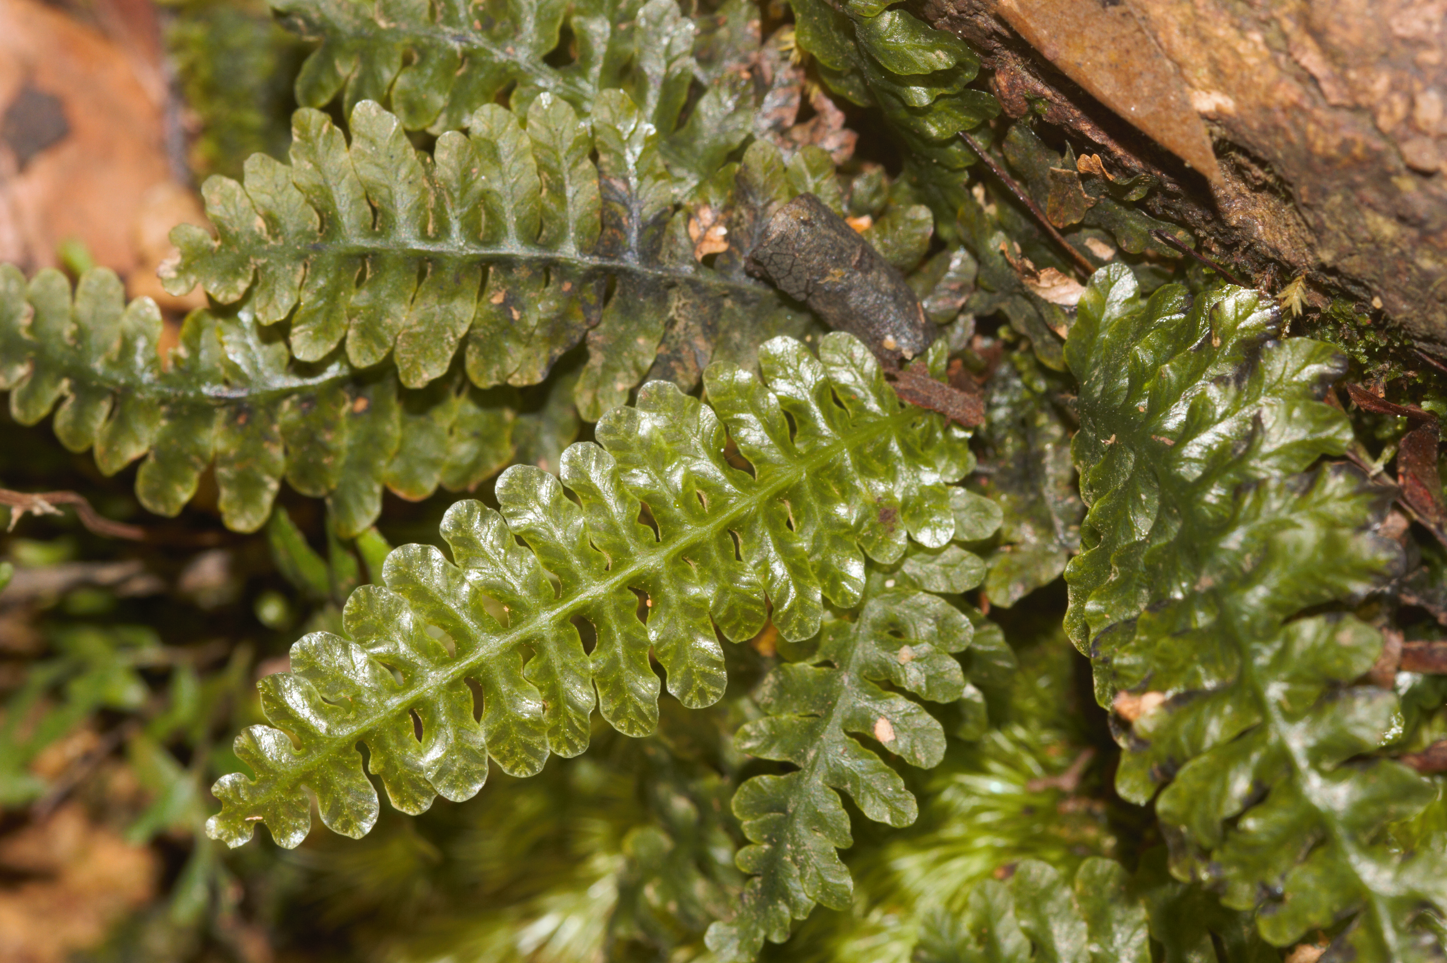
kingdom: Plantae
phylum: Tracheophyta
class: Polypodiopsida
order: Hymenophyllales
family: Hymenophyllaceae
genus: Trichomanes
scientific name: Trichomanes
